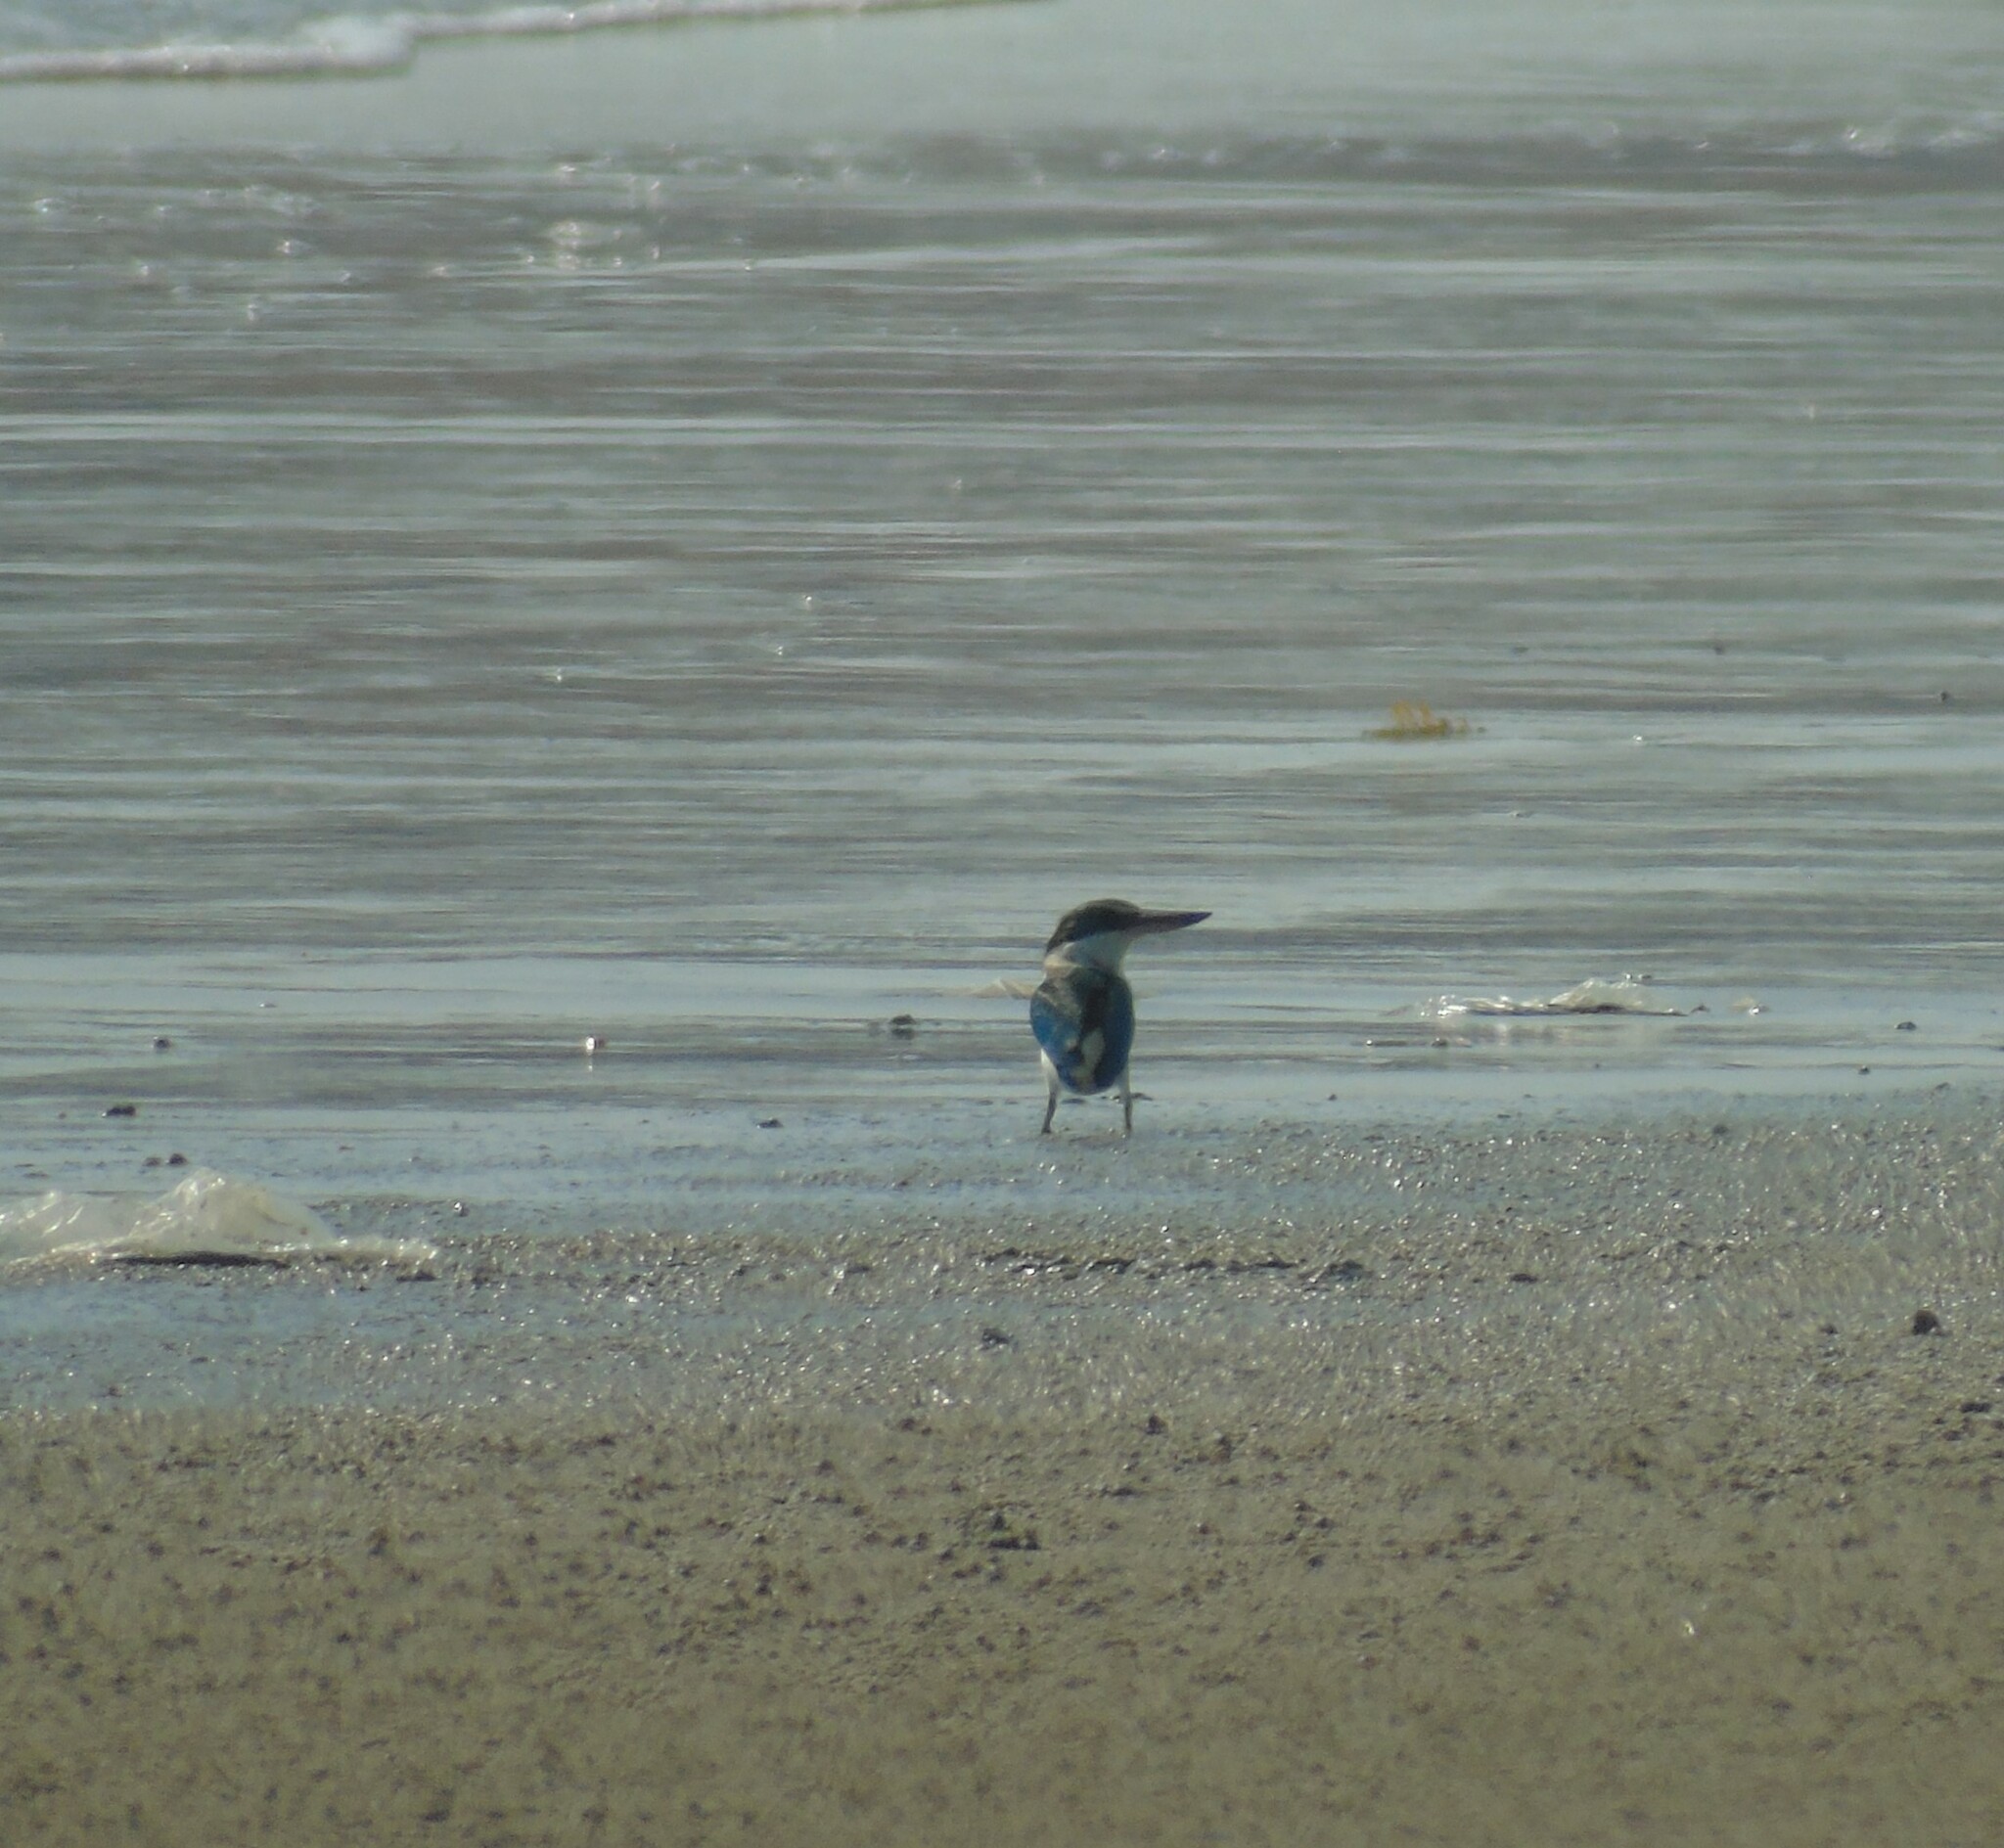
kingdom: Animalia
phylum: Chordata
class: Aves
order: Coraciiformes
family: Alcedinidae
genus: Todiramphus
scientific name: Todiramphus chloris
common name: Collared kingfisher
